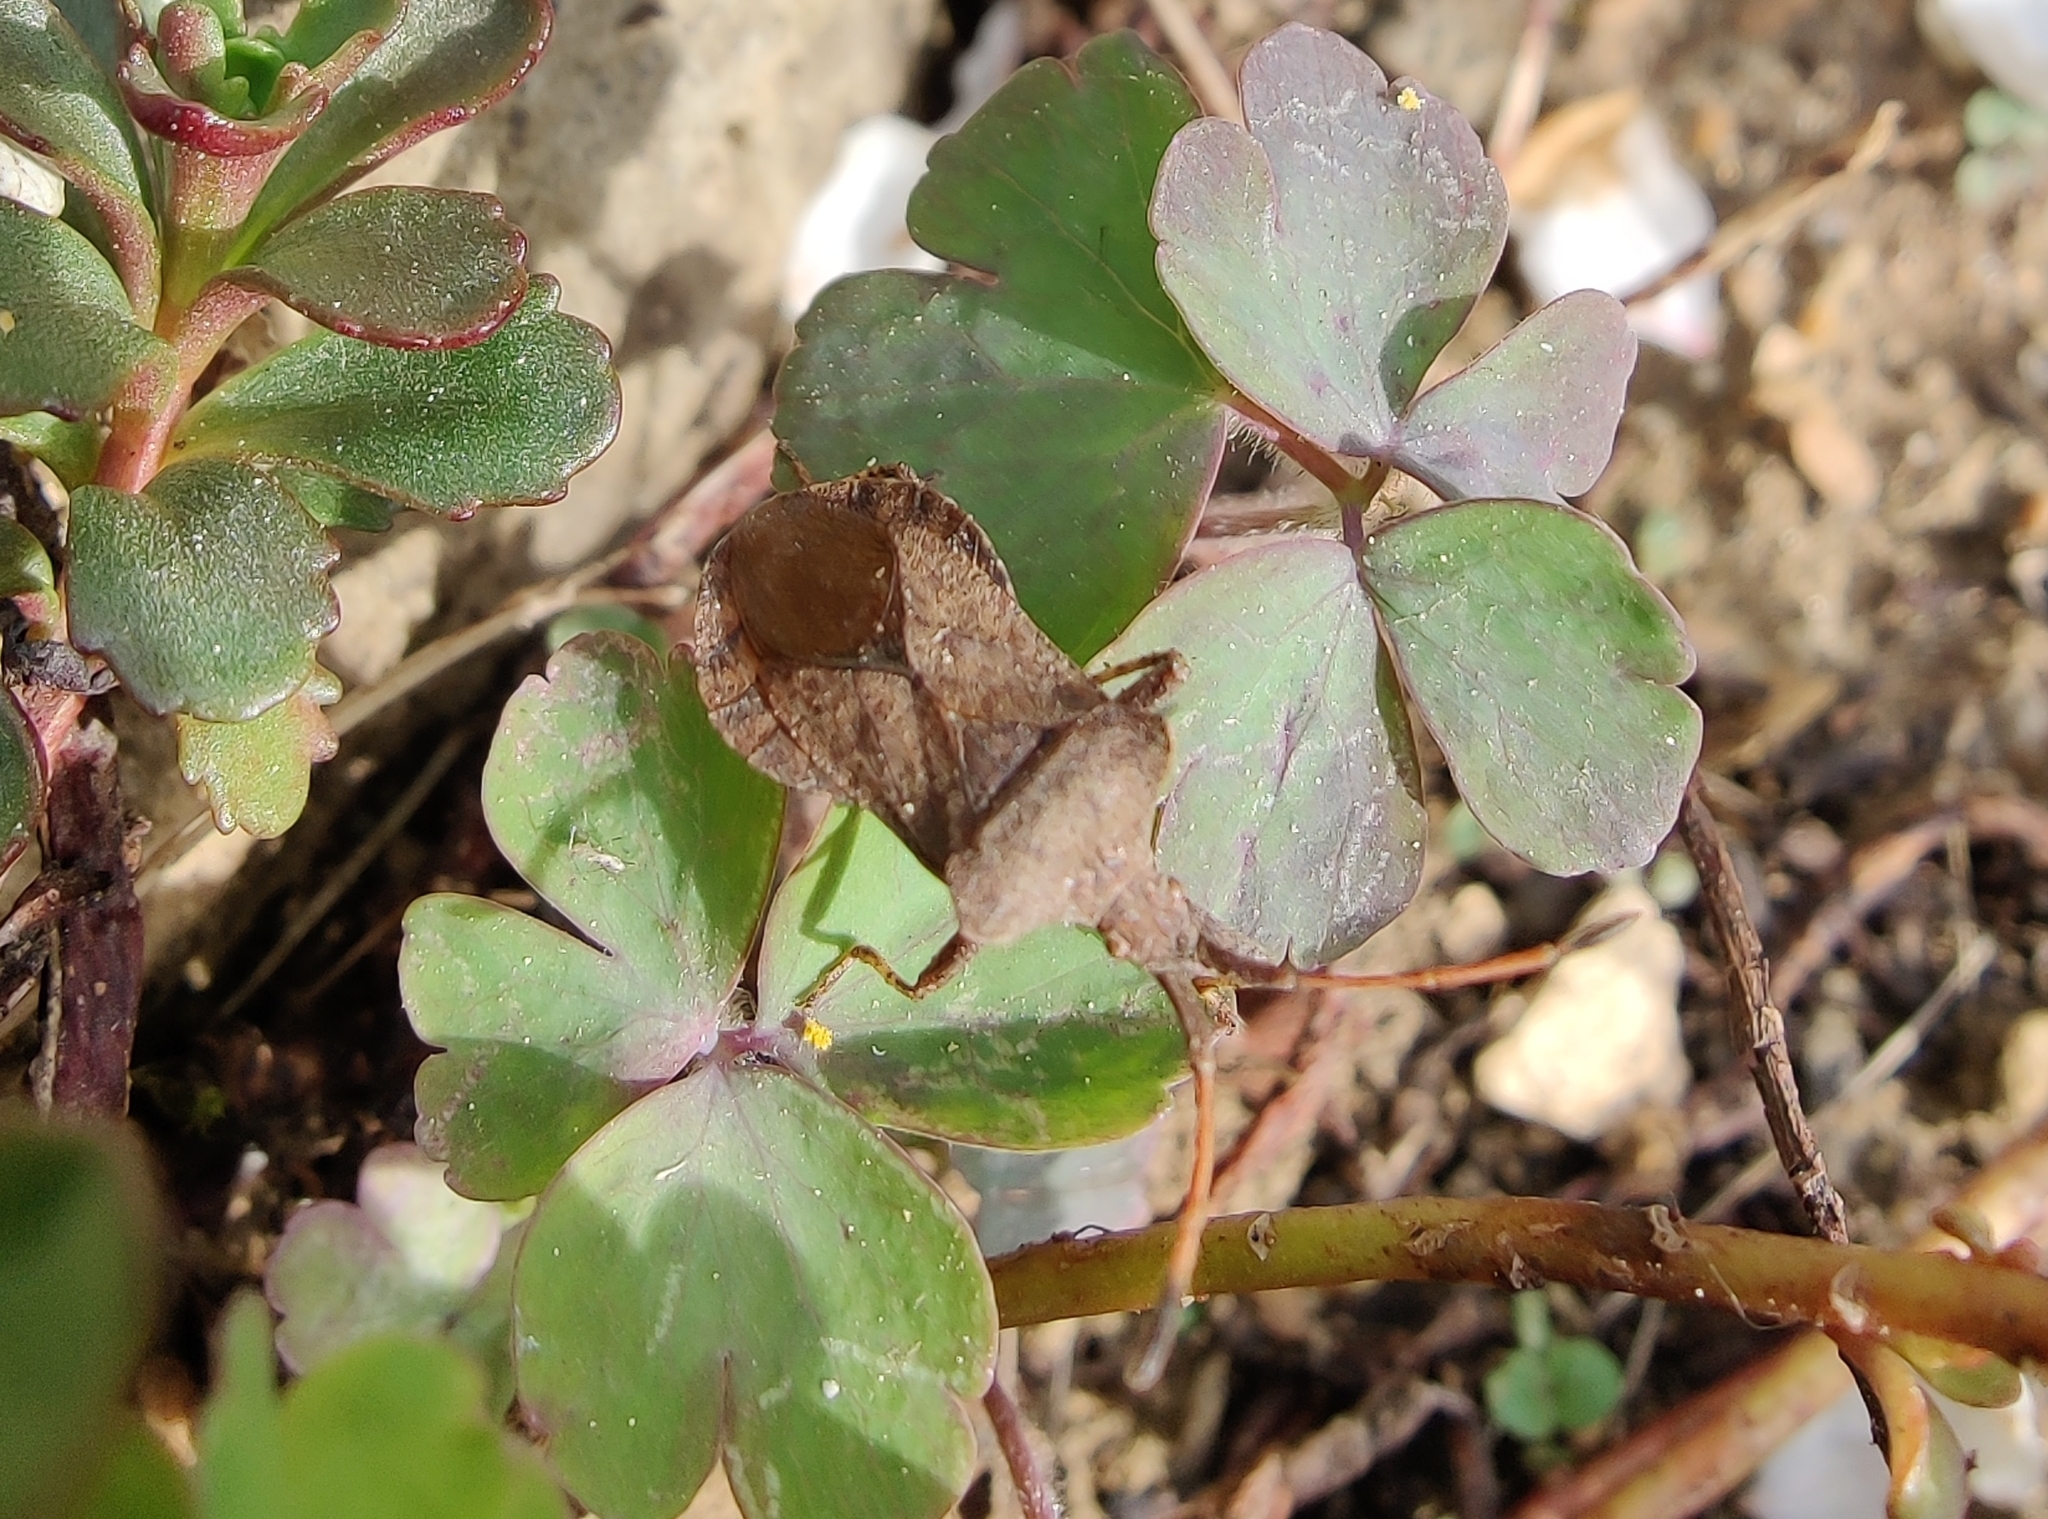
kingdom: Animalia
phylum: Arthropoda
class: Insecta
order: Hemiptera
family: Coreidae
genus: Coreus
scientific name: Coreus marginatus
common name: Dock bug
